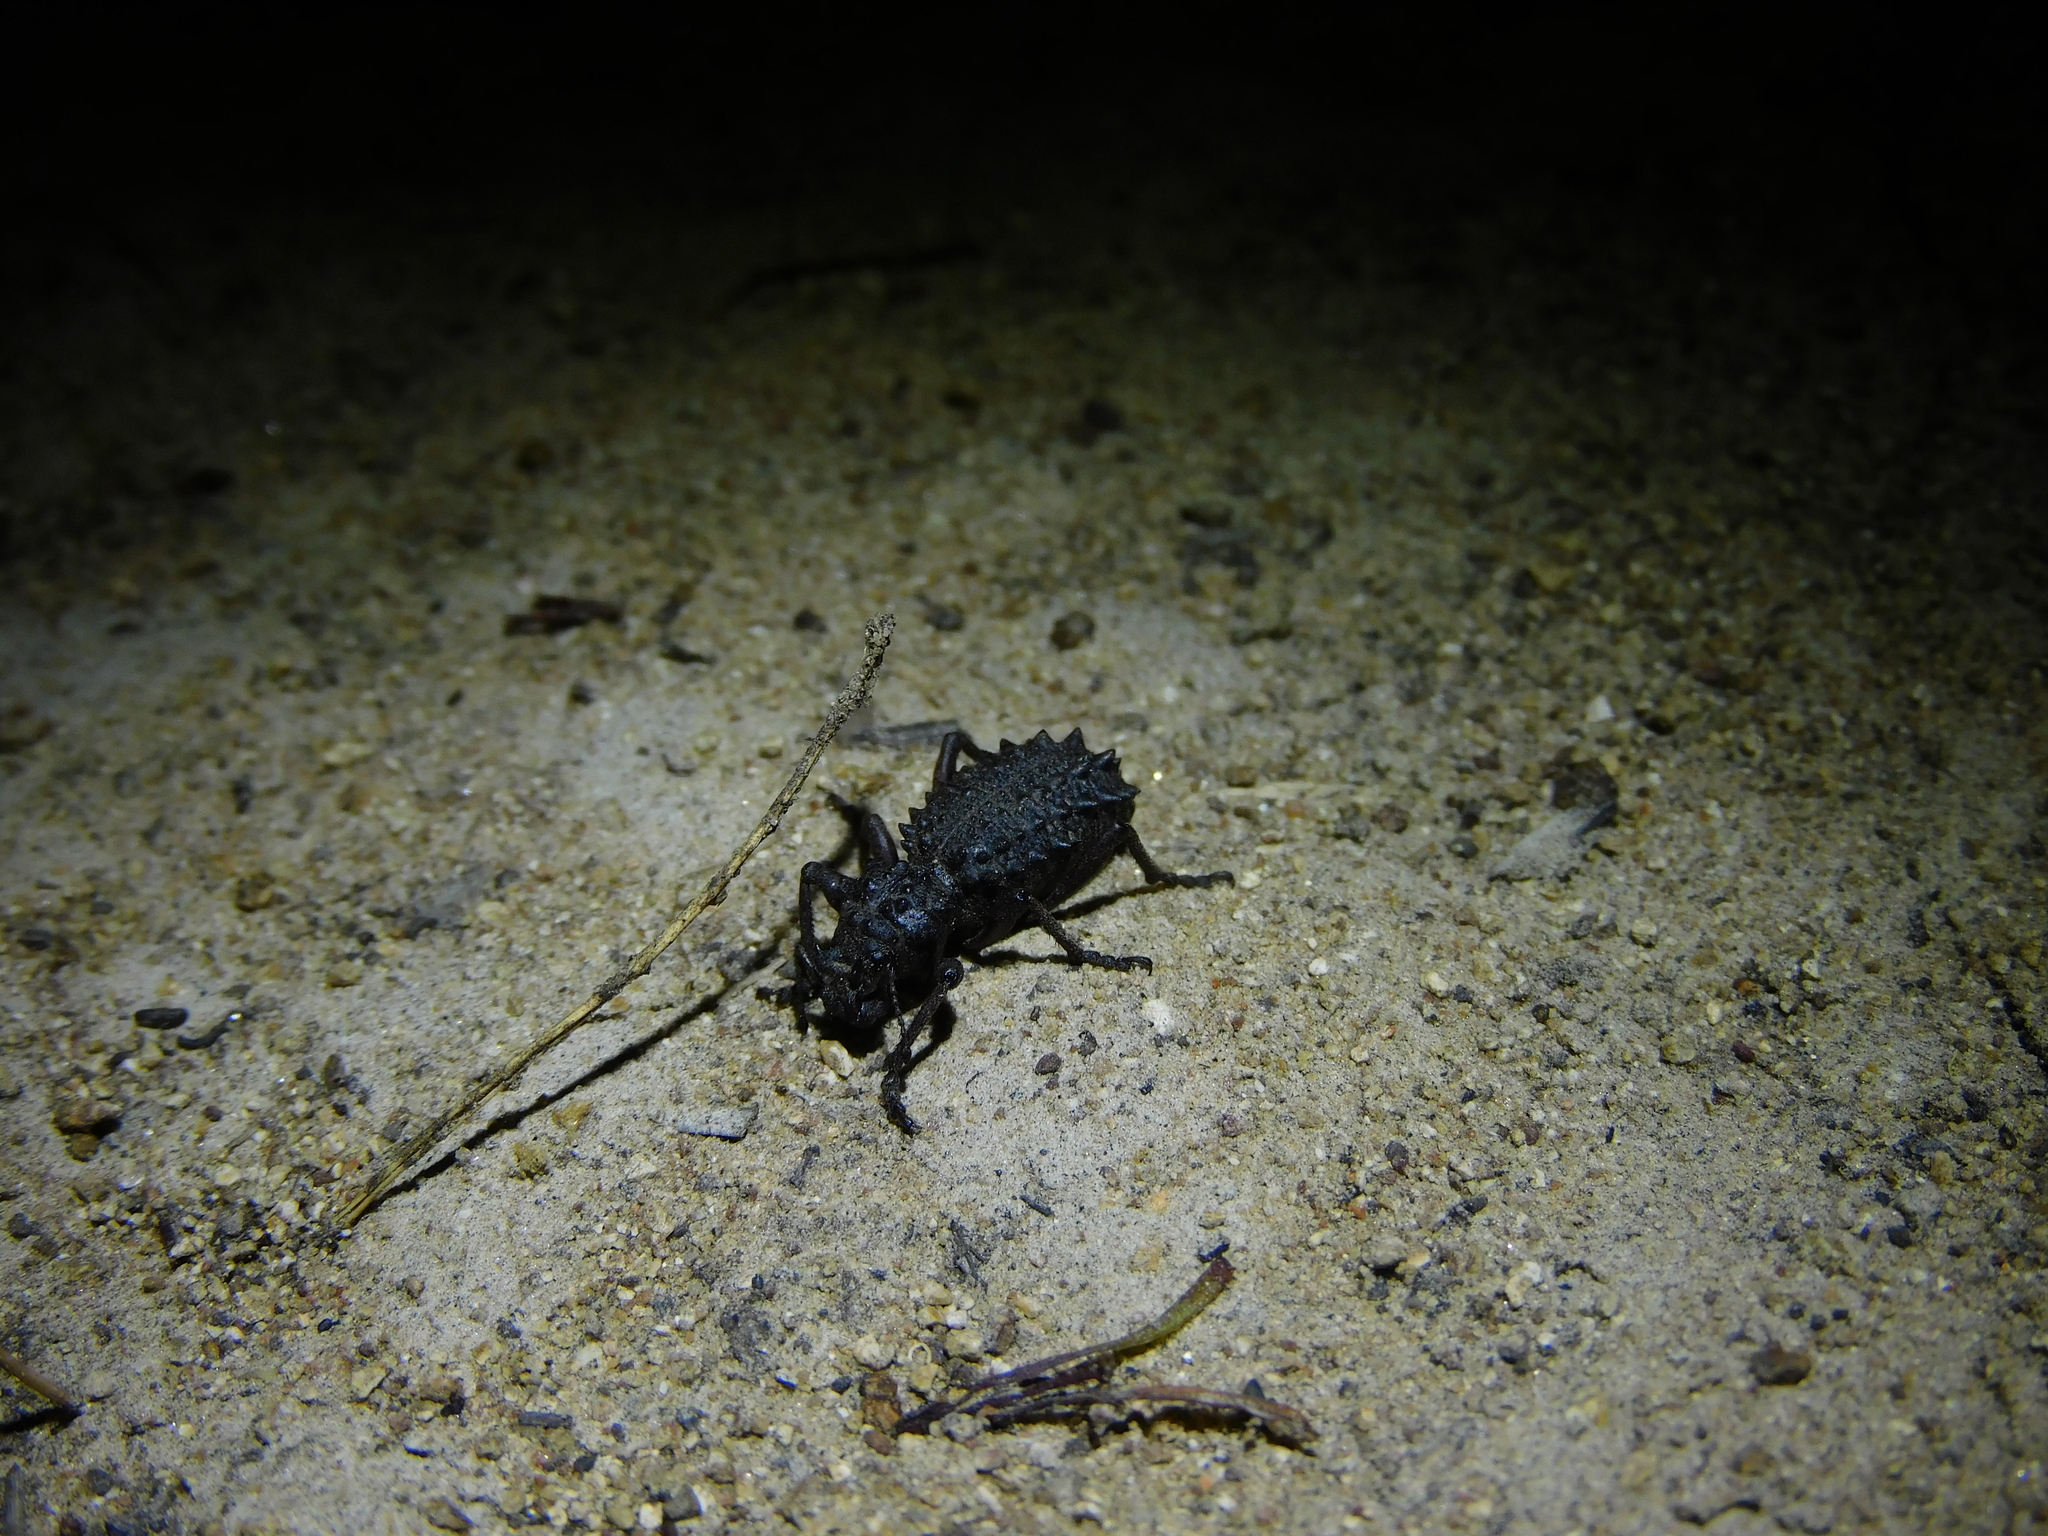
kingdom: Animalia
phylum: Arthropoda
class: Insecta
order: Coleoptera
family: Curculionidae
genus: Acantholophus
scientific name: Acantholophus tasmaniensis
